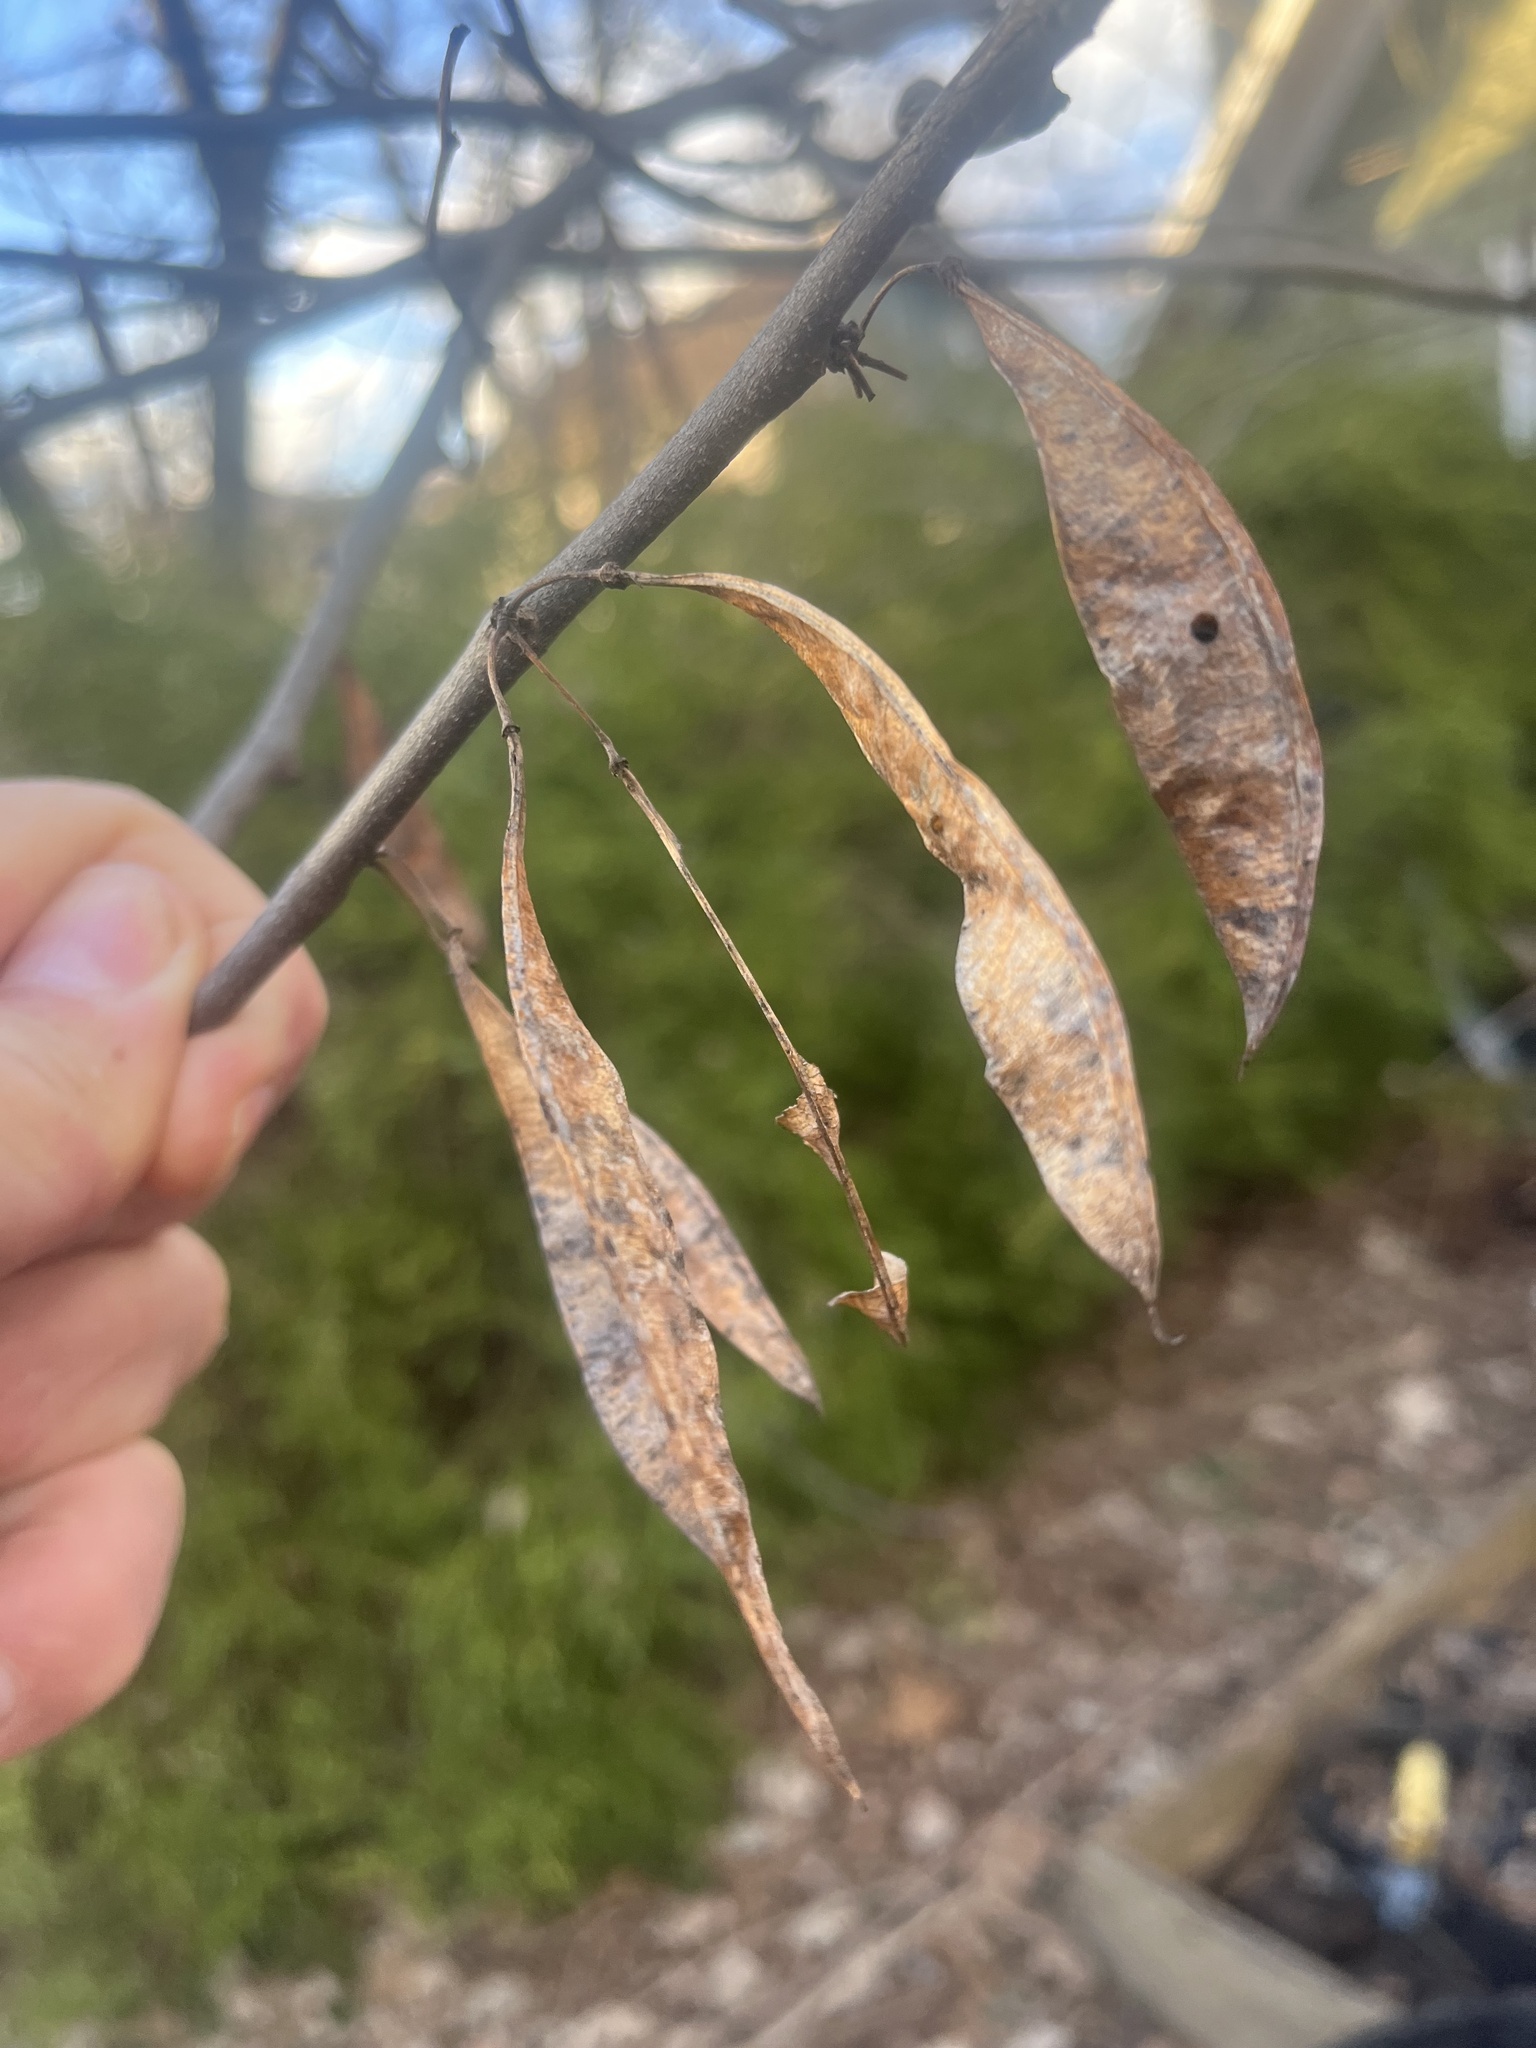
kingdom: Plantae
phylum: Tracheophyta
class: Magnoliopsida
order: Fabales
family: Fabaceae
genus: Cercis
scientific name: Cercis canadensis
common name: Eastern redbud
